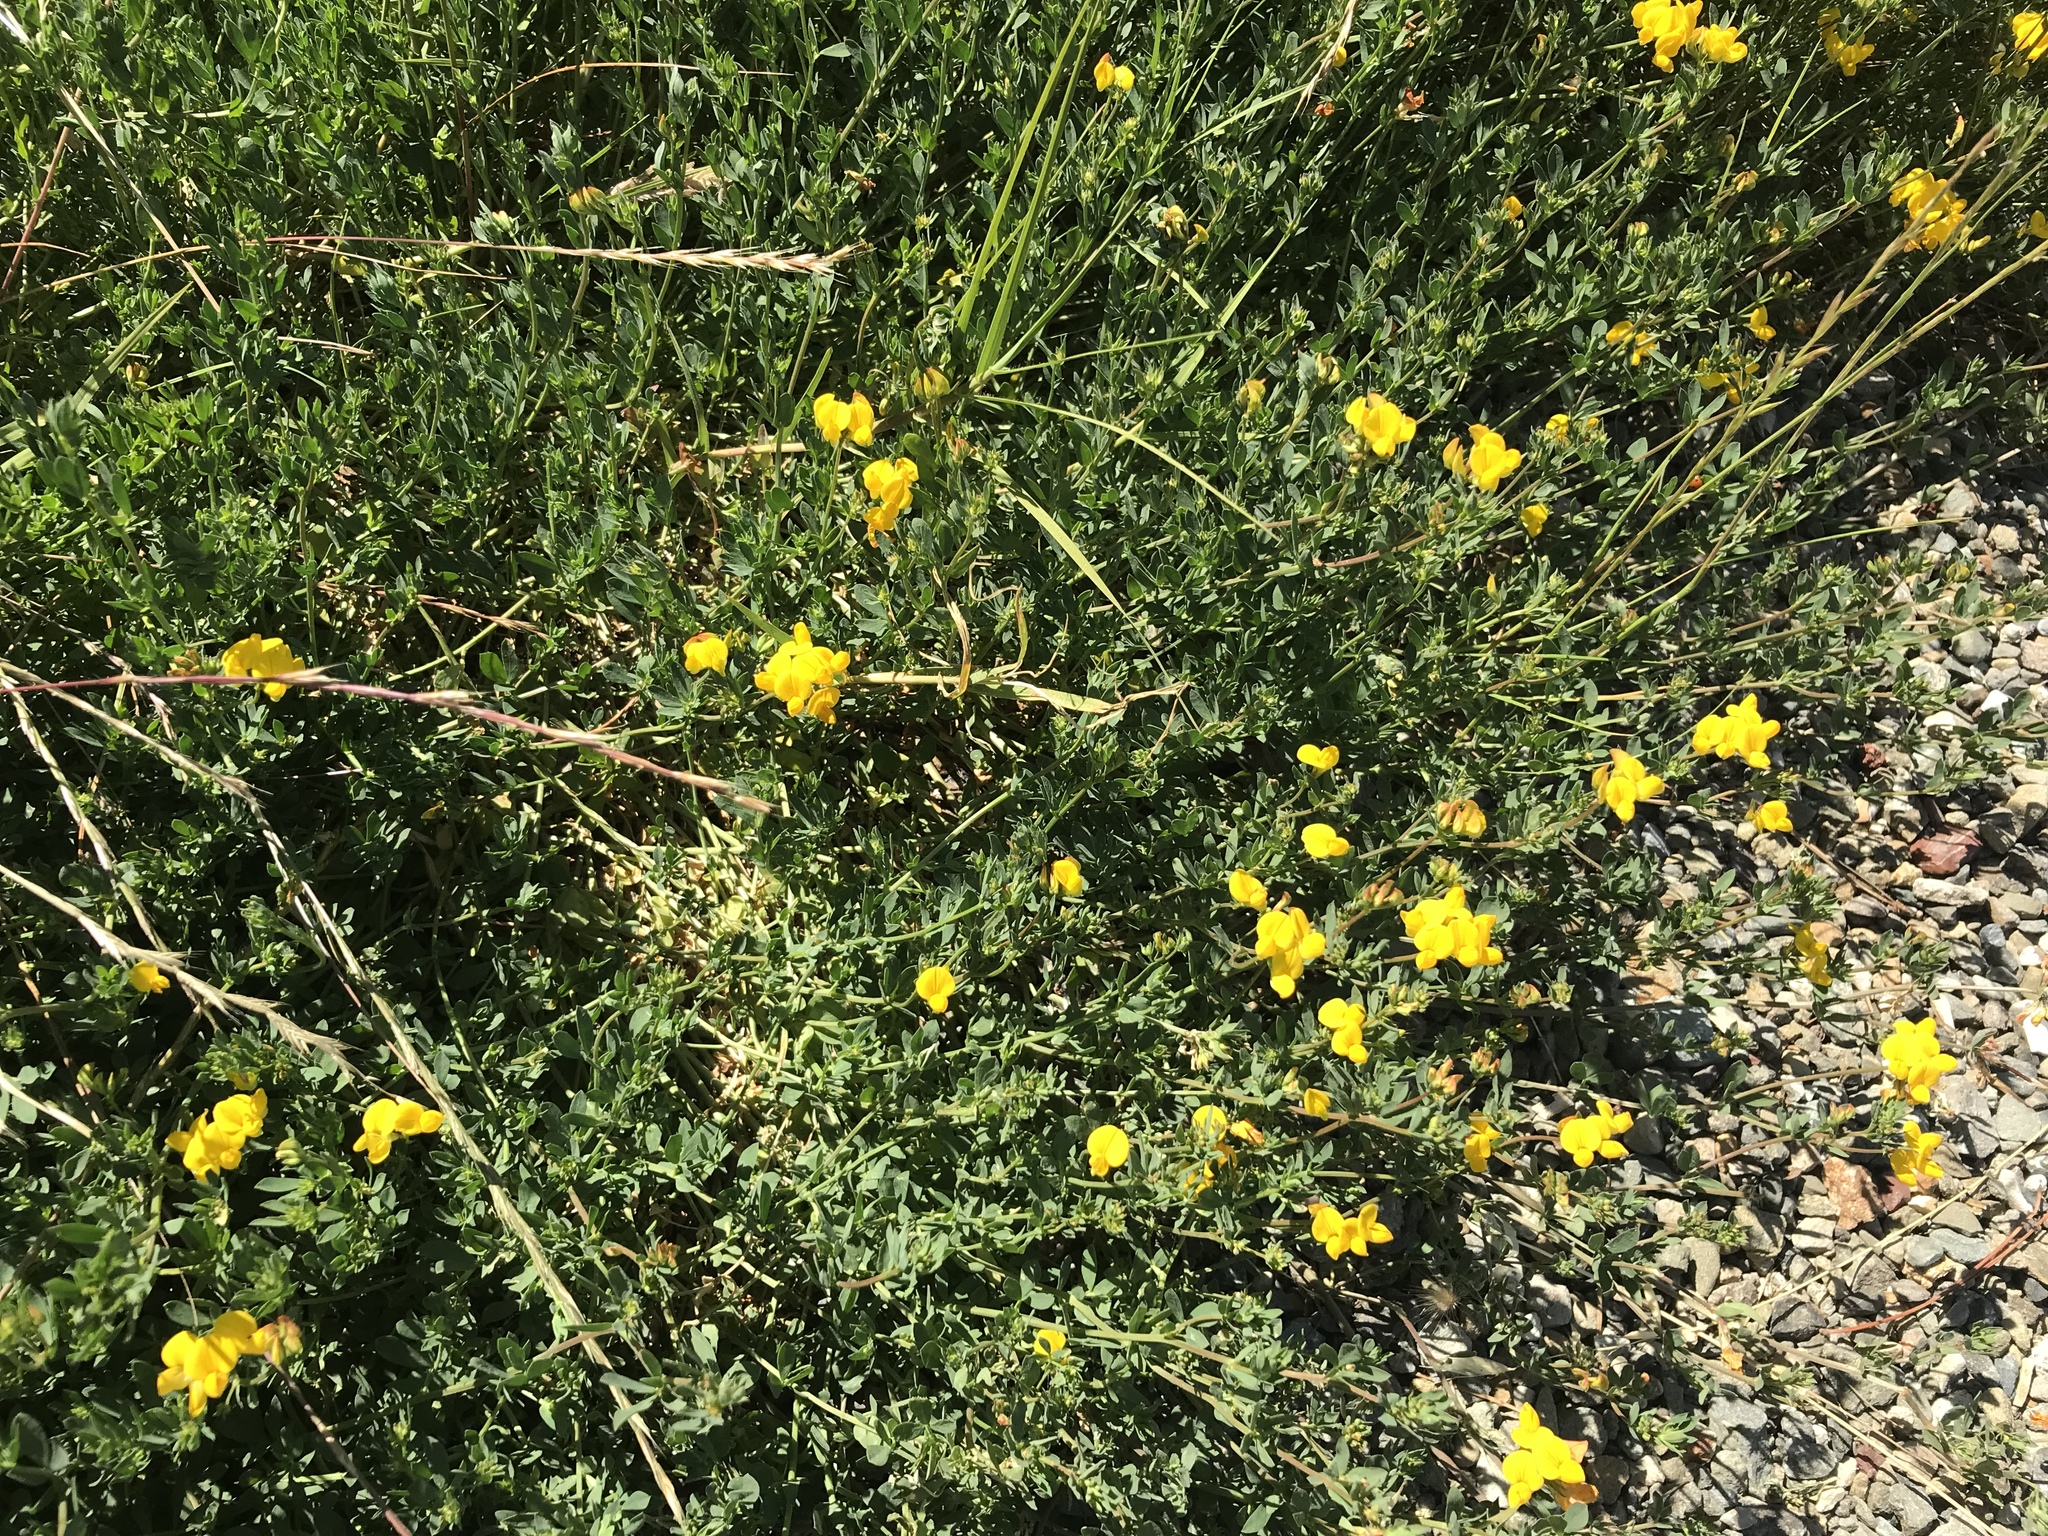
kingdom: Plantae
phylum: Tracheophyta
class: Magnoliopsida
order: Fabales
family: Fabaceae
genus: Lotus
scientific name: Lotus corniculatus
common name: Common bird's-foot-trefoil
